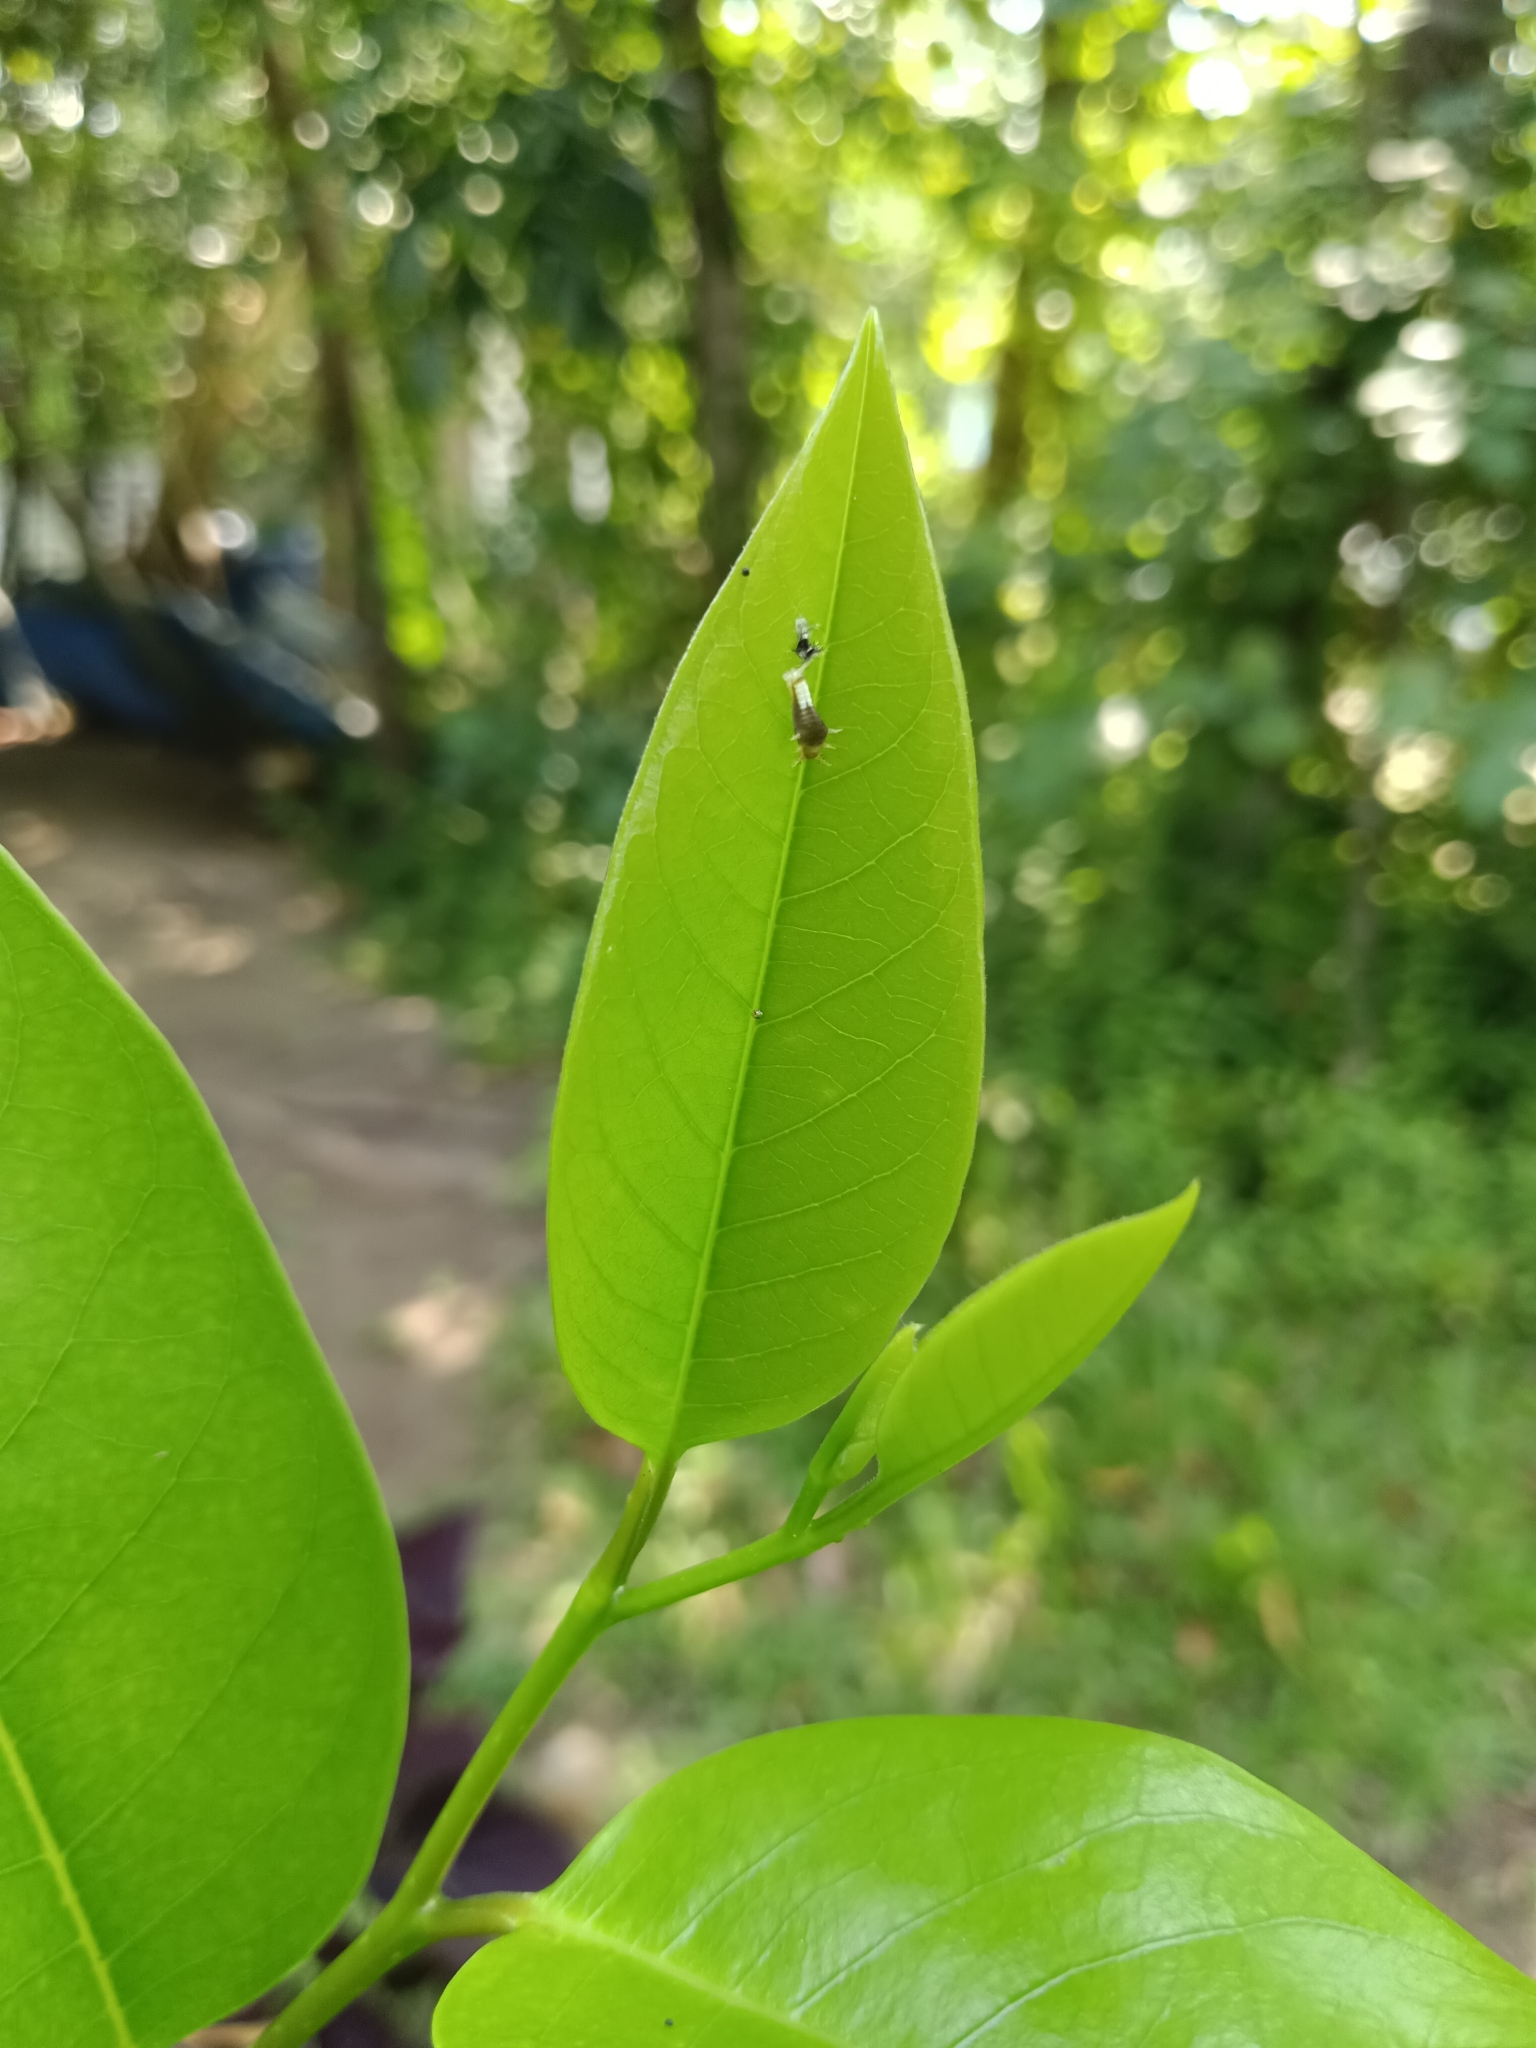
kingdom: Animalia
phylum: Arthropoda
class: Insecta
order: Lepidoptera
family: Papilionidae
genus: Graphium
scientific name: Graphium agamemnon
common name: Tailed jay
